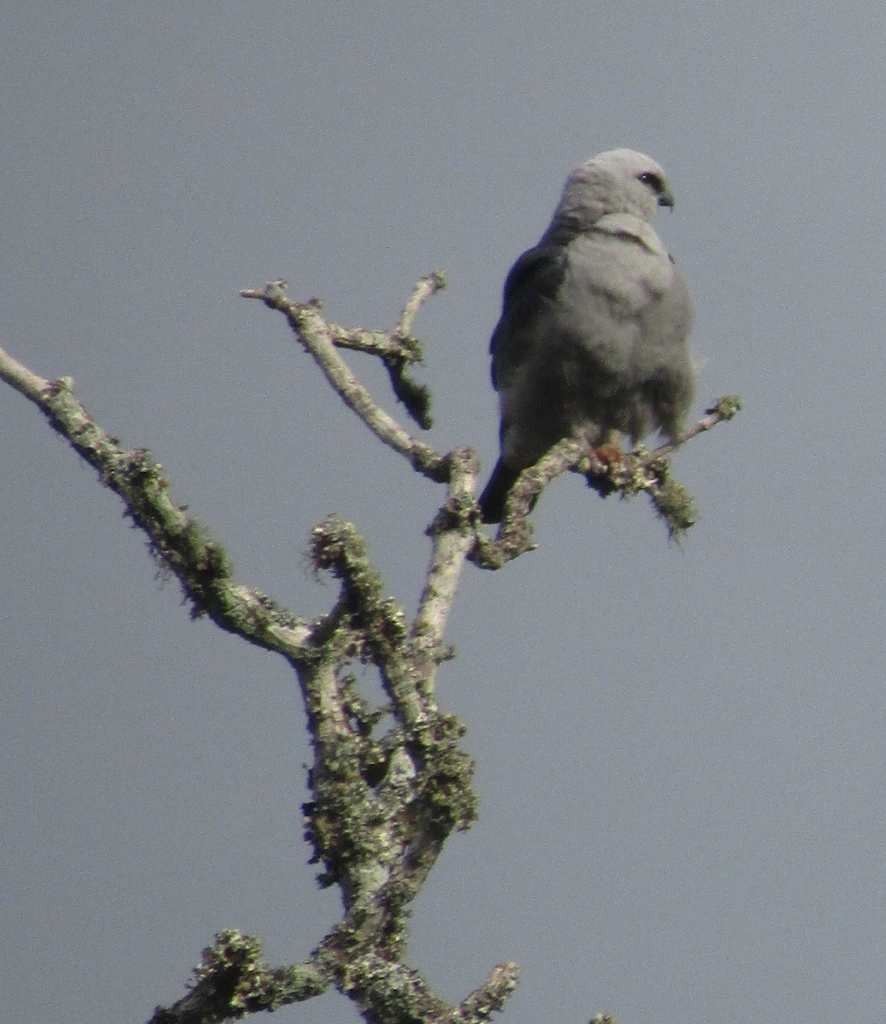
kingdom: Animalia
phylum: Chordata
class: Aves
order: Accipitriformes
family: Accipitridae
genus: Ictinia
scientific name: Ictinia mississippiensis
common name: Mississippi kite
